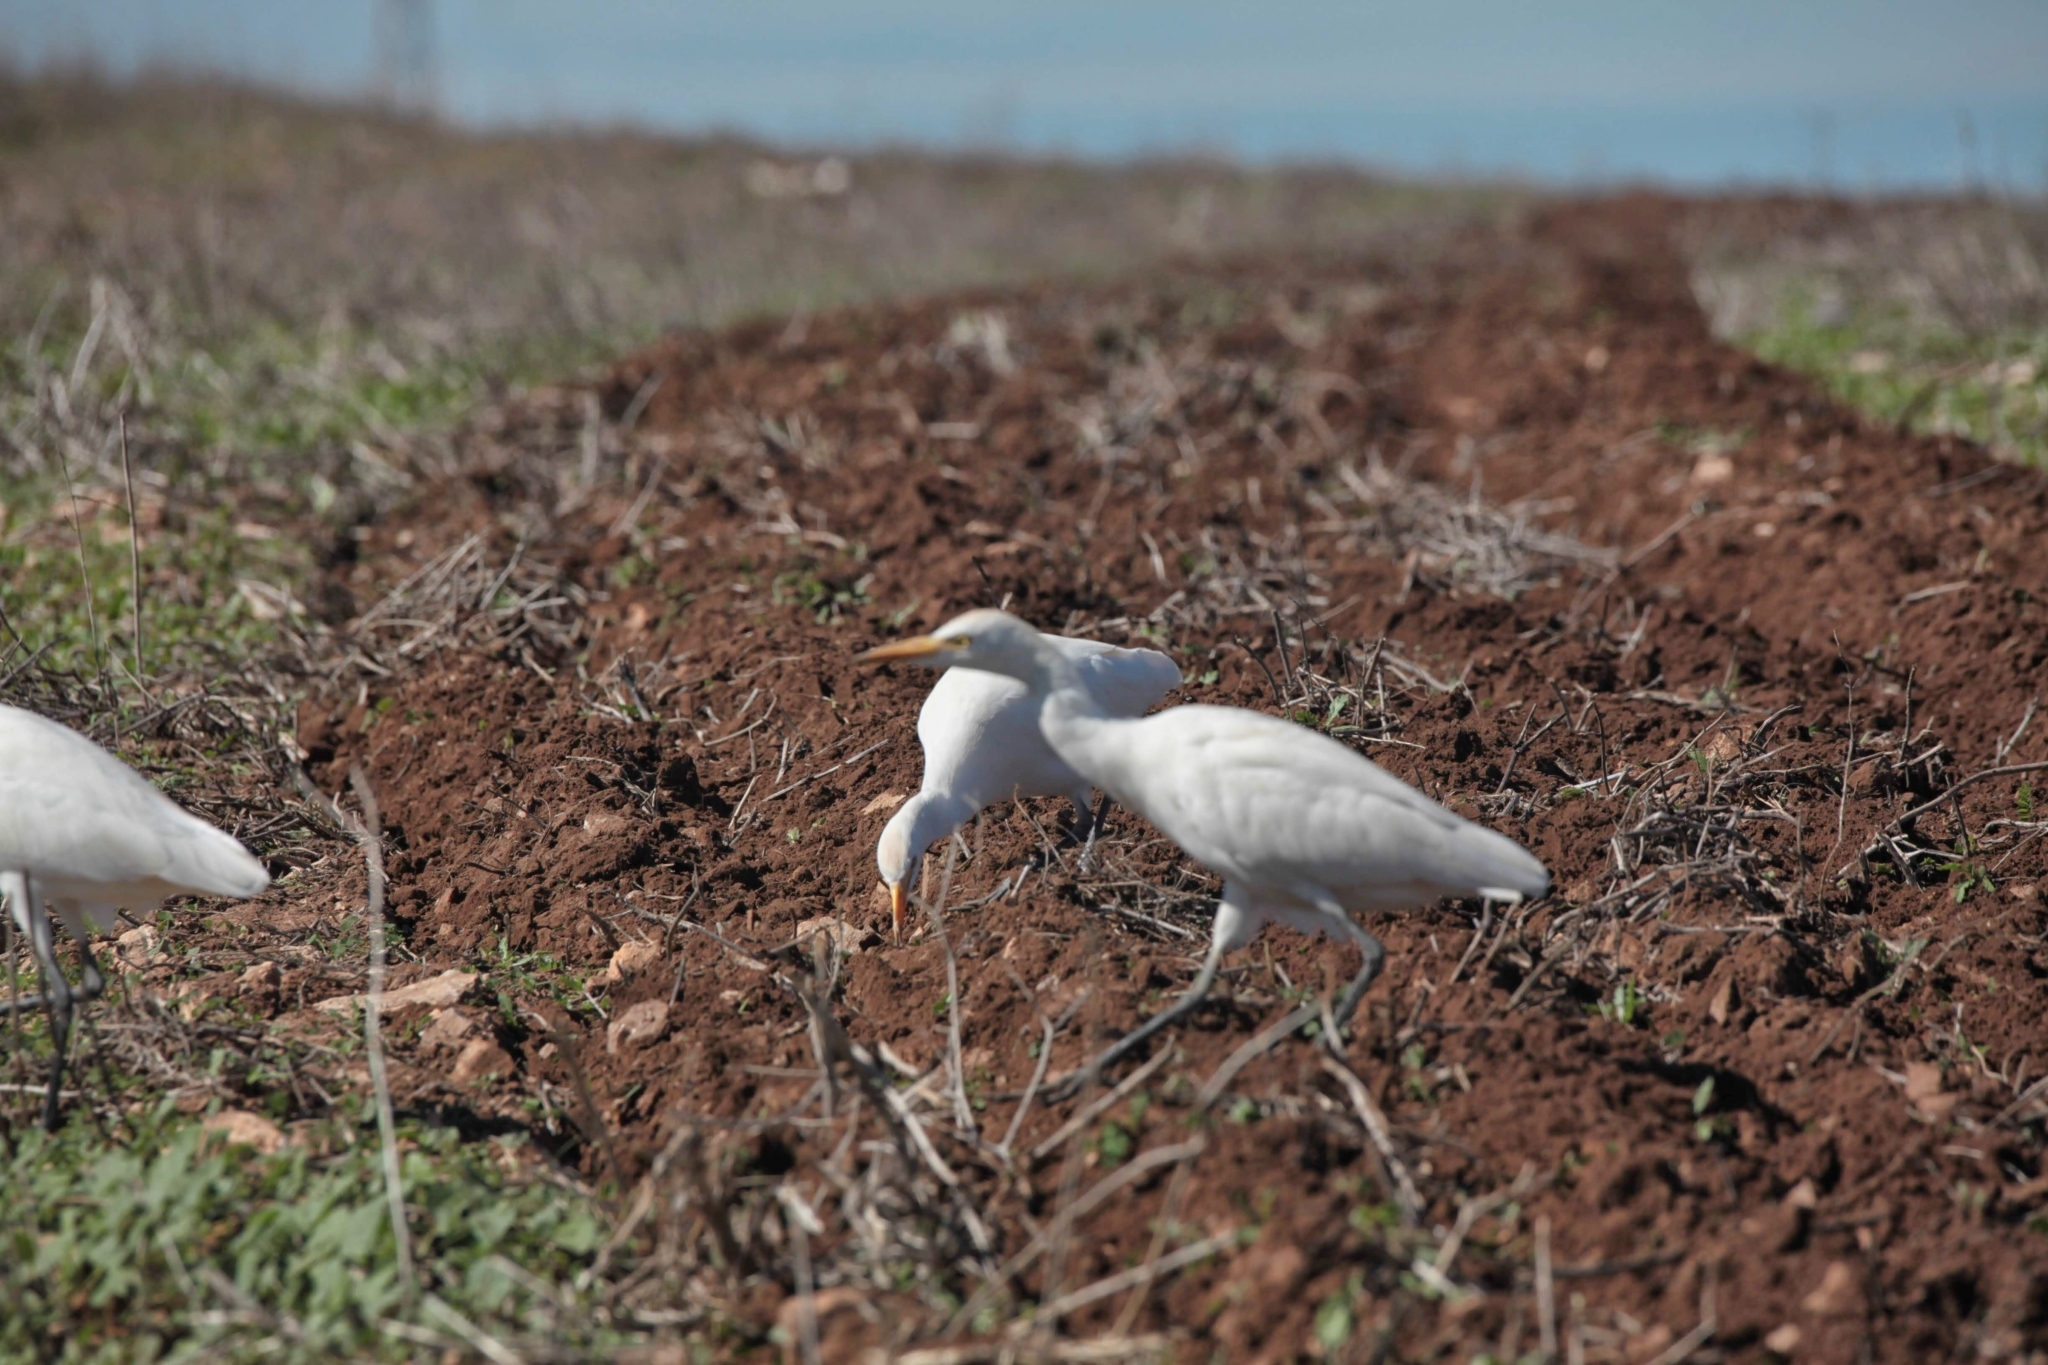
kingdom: Animalia
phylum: Chordata
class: Aves
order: Pelecaniformes
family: Ardeidae
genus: Bubulcus
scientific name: Bubulcus ibis
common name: Cattle egret
